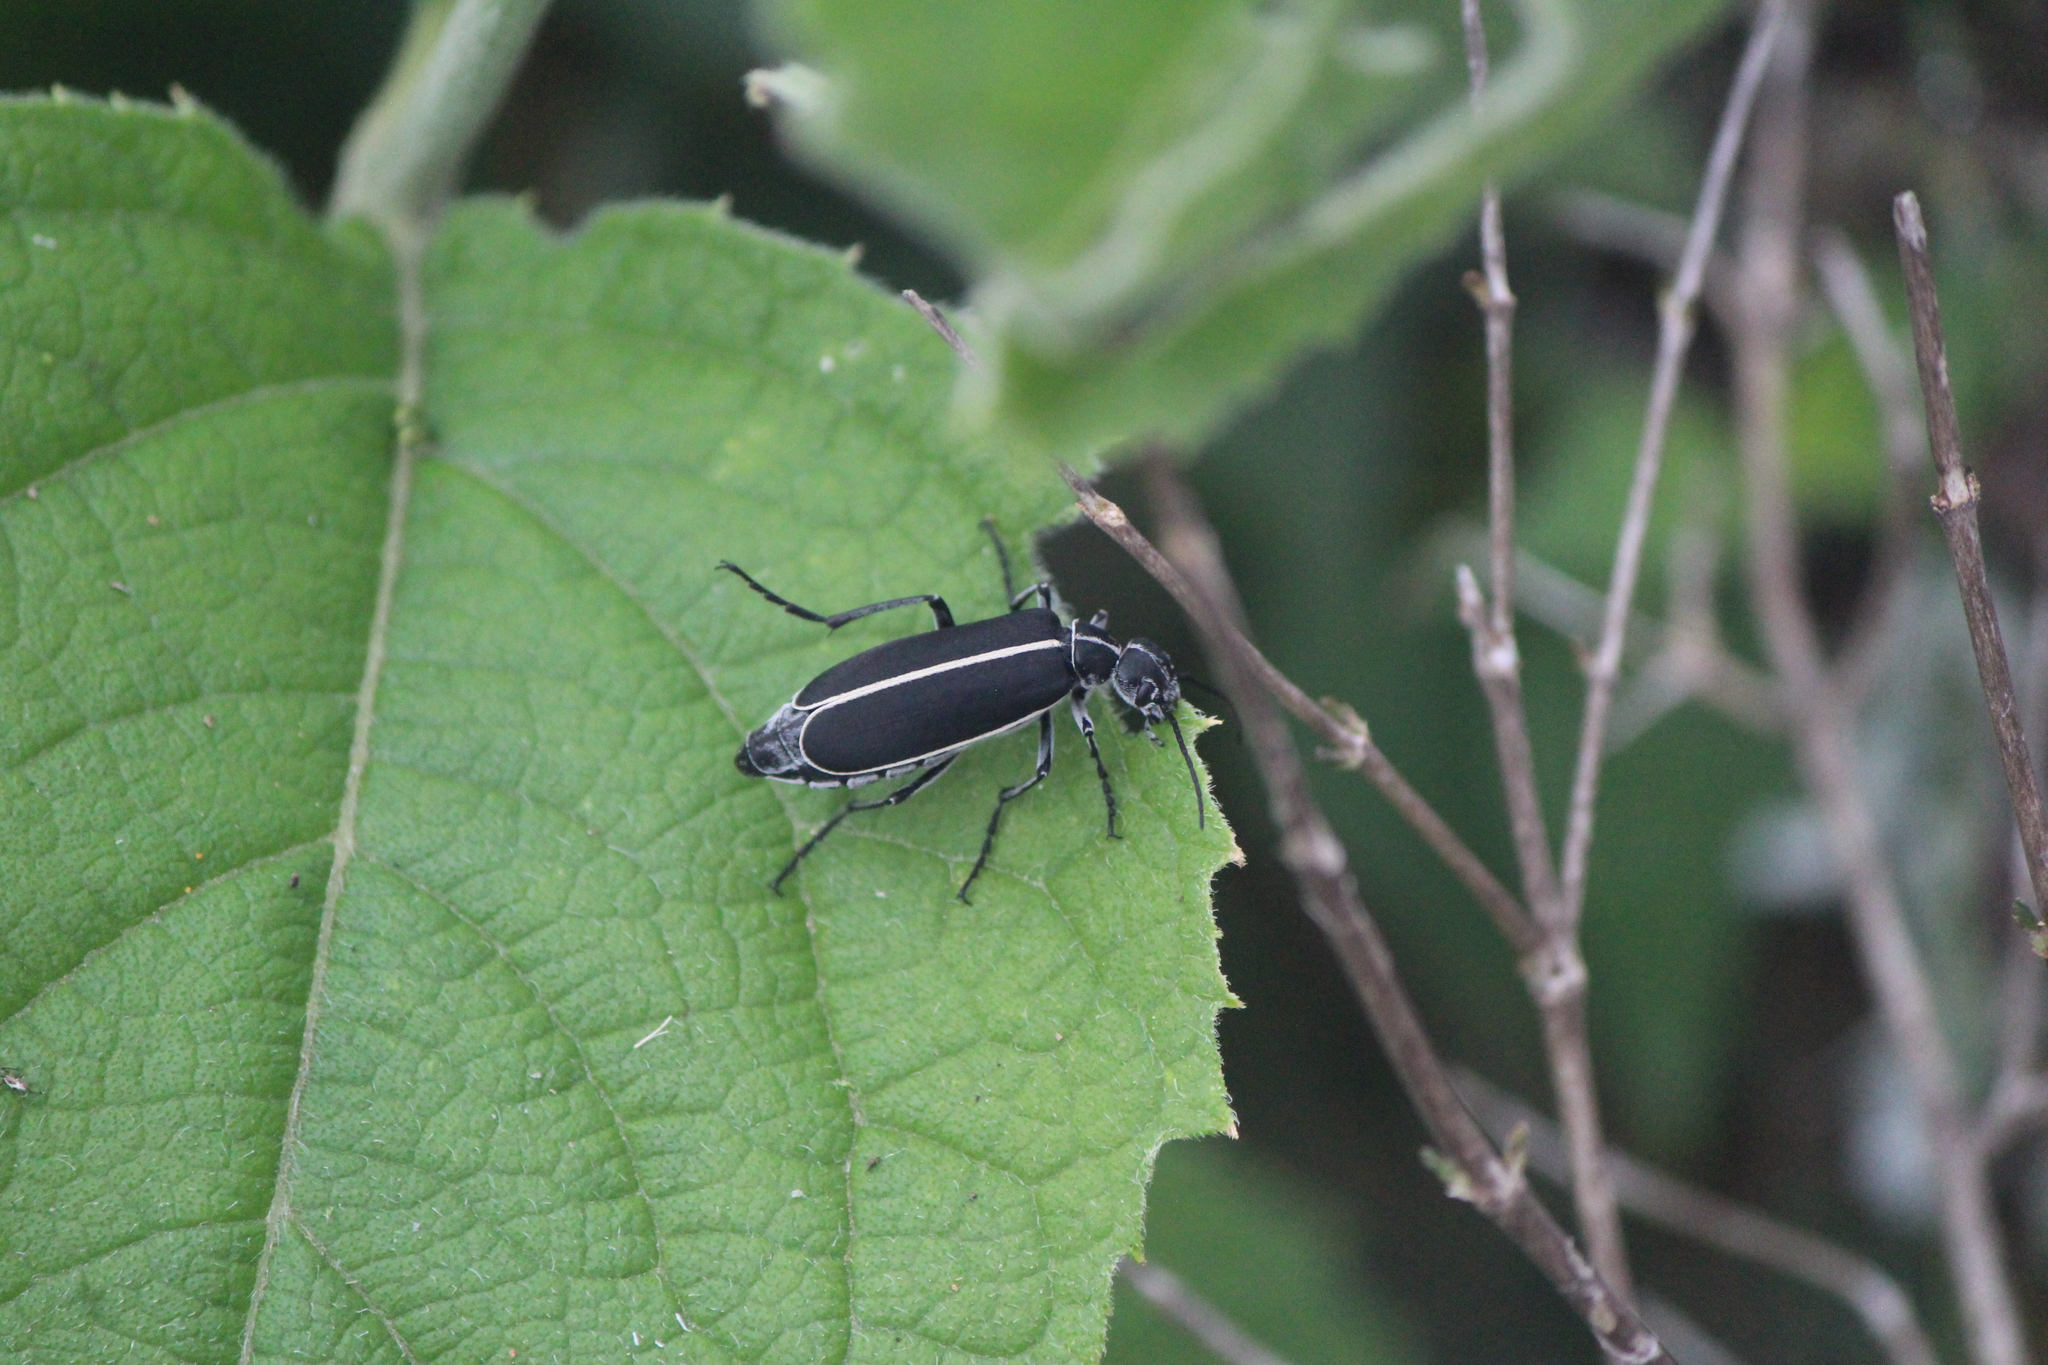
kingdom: Animalia
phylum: Arthropoda
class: Insecta
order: Coleoptera
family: Meloidae
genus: Epicauta
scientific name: Epicauta cinctipennis
